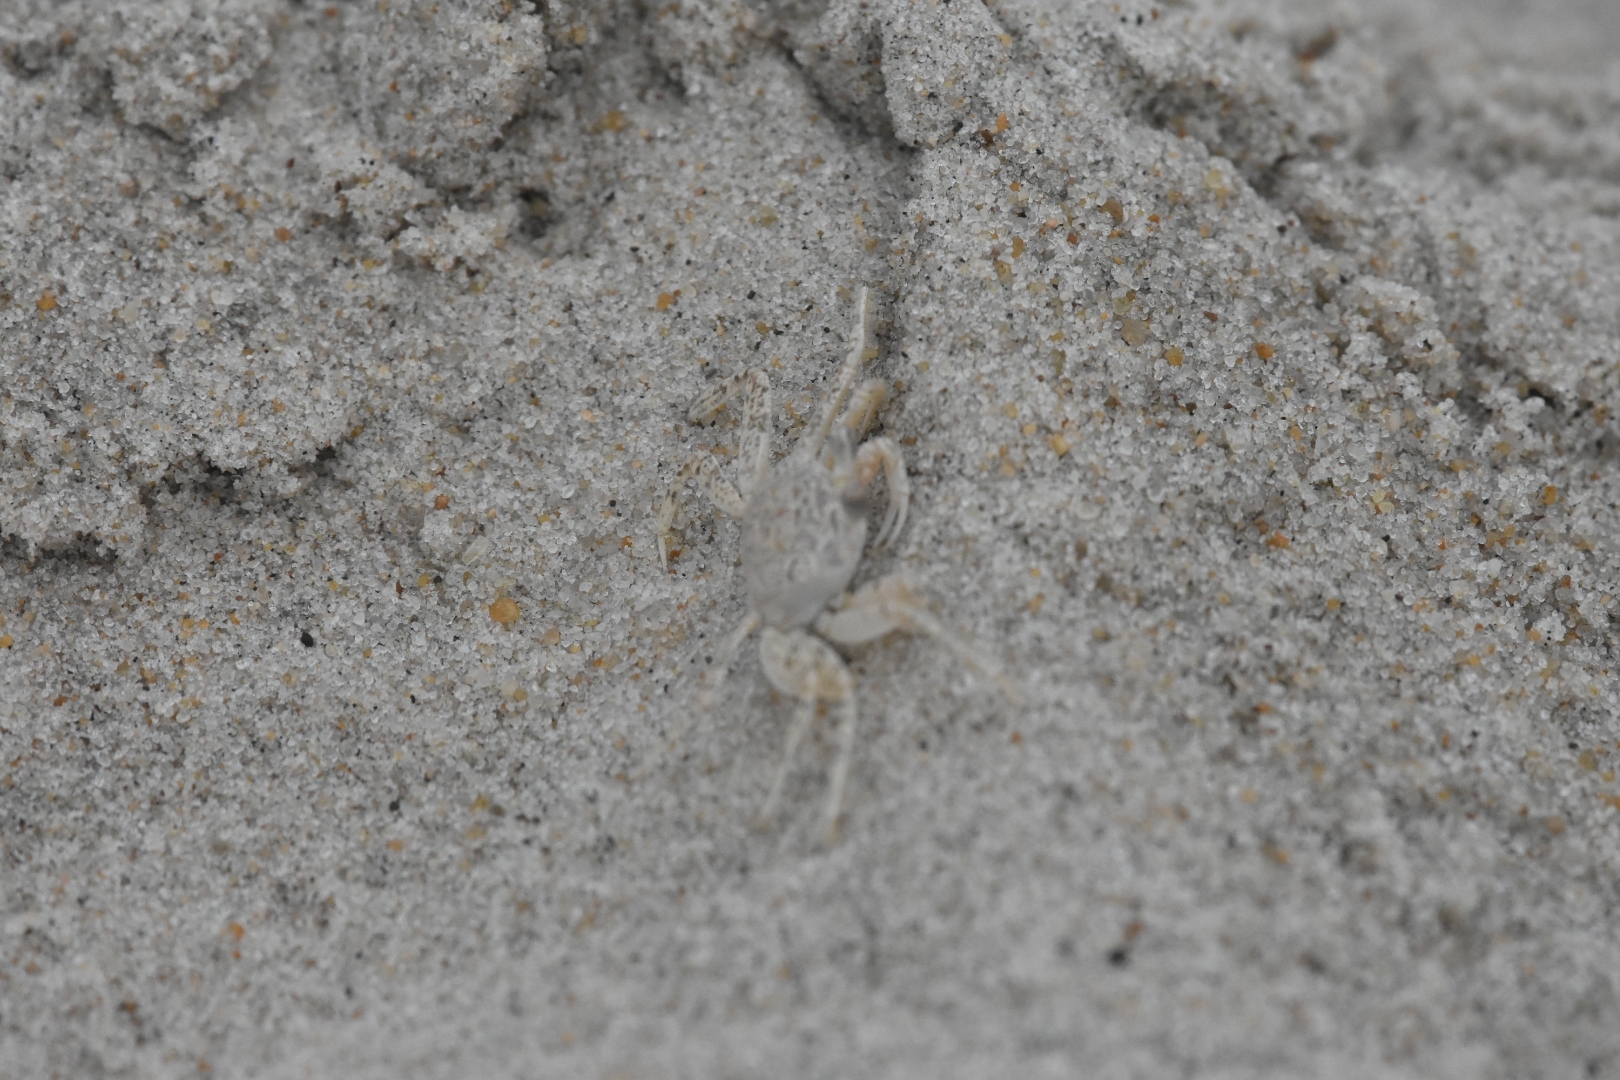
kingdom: Animalia
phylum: Arthropoda
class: Malacostraca
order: Decapoda
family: Ocypodidae
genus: Ocypode
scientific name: Ocypode quadrata
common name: Ghost crab
